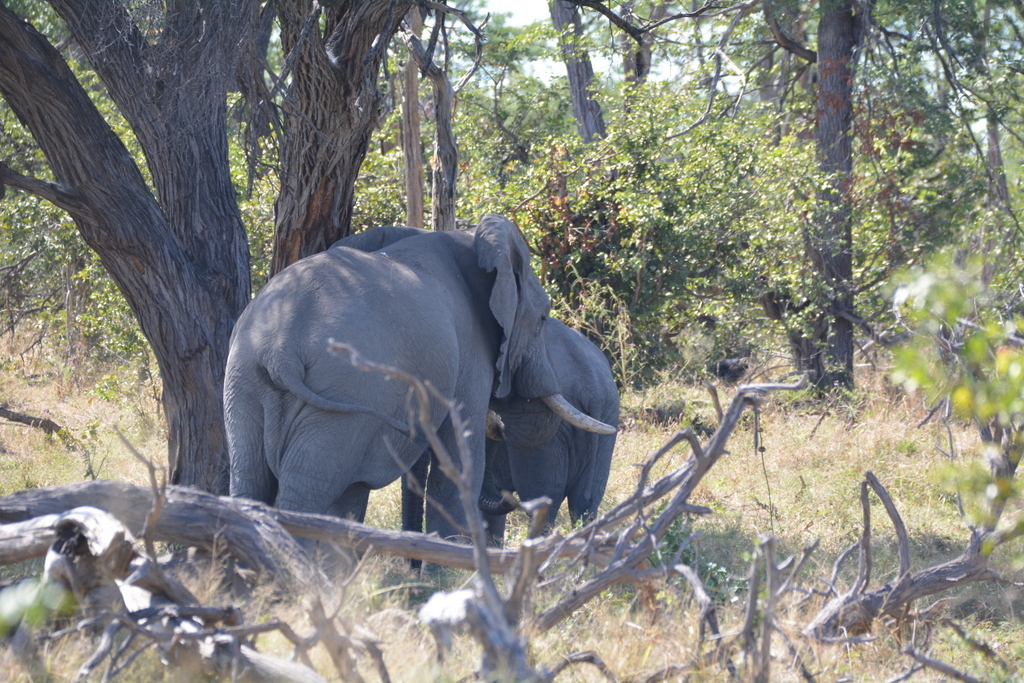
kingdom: Animalia
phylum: Chordata
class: Mammalia
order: Proboscidea
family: Elephantidae
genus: Loxodonta
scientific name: Loxodonta africana
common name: African elephant
